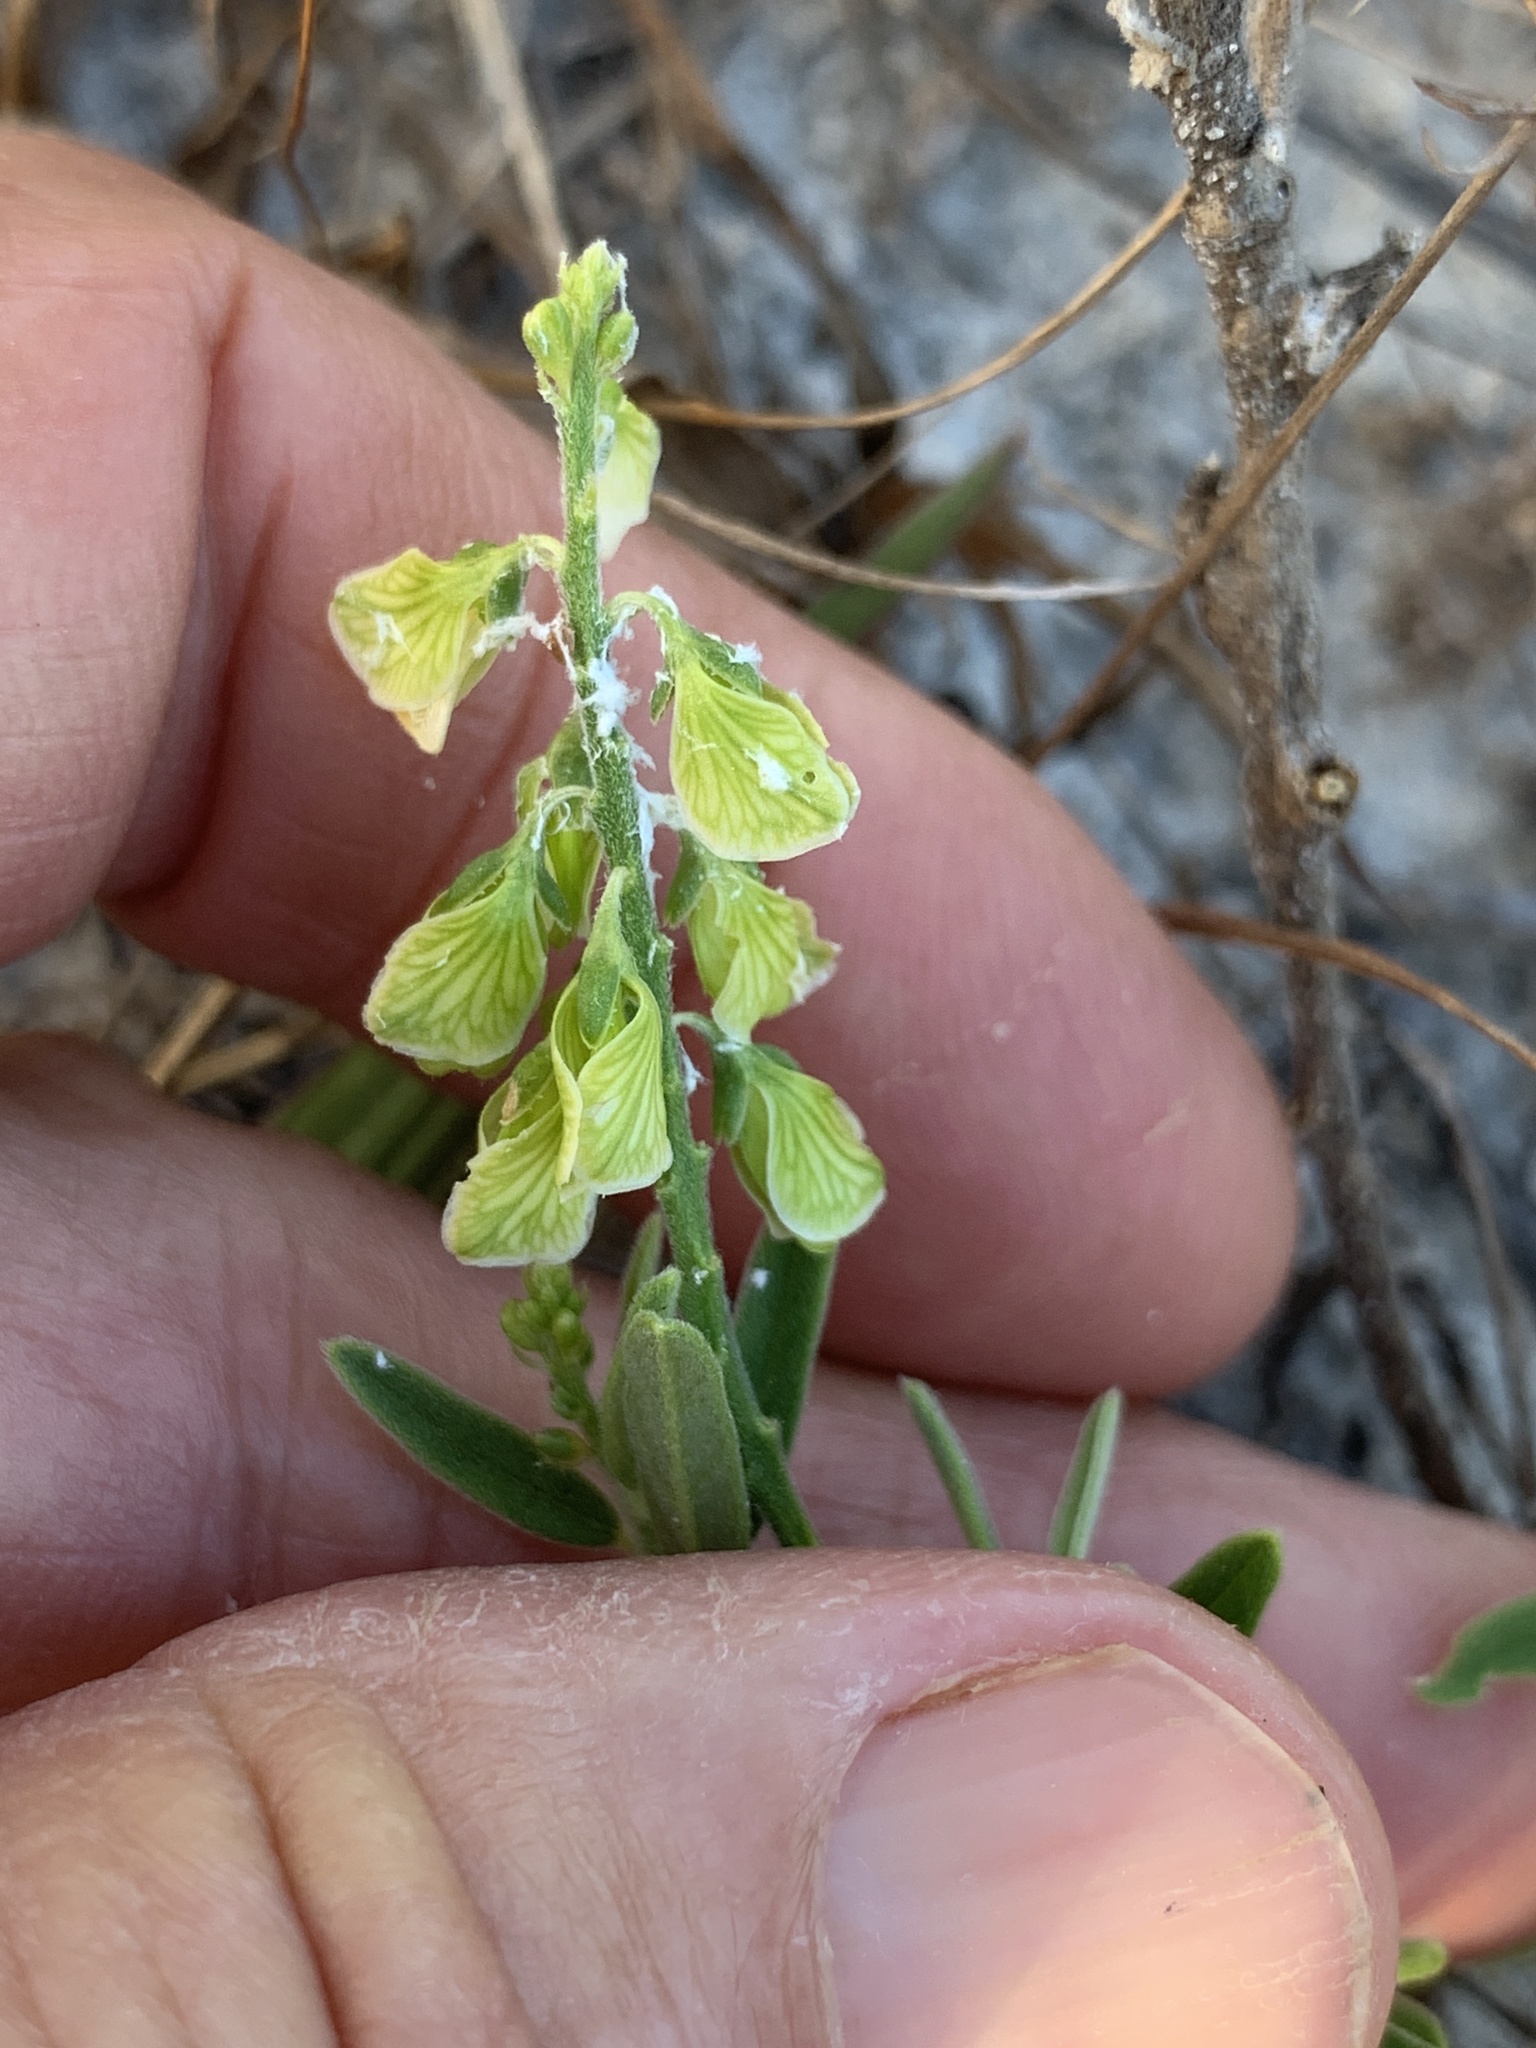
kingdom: Plantae
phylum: Tracheophyta
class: Magnoliopsida
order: Fabales
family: Polygalaceae
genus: Asemeia
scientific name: Asemeia grandiflora
